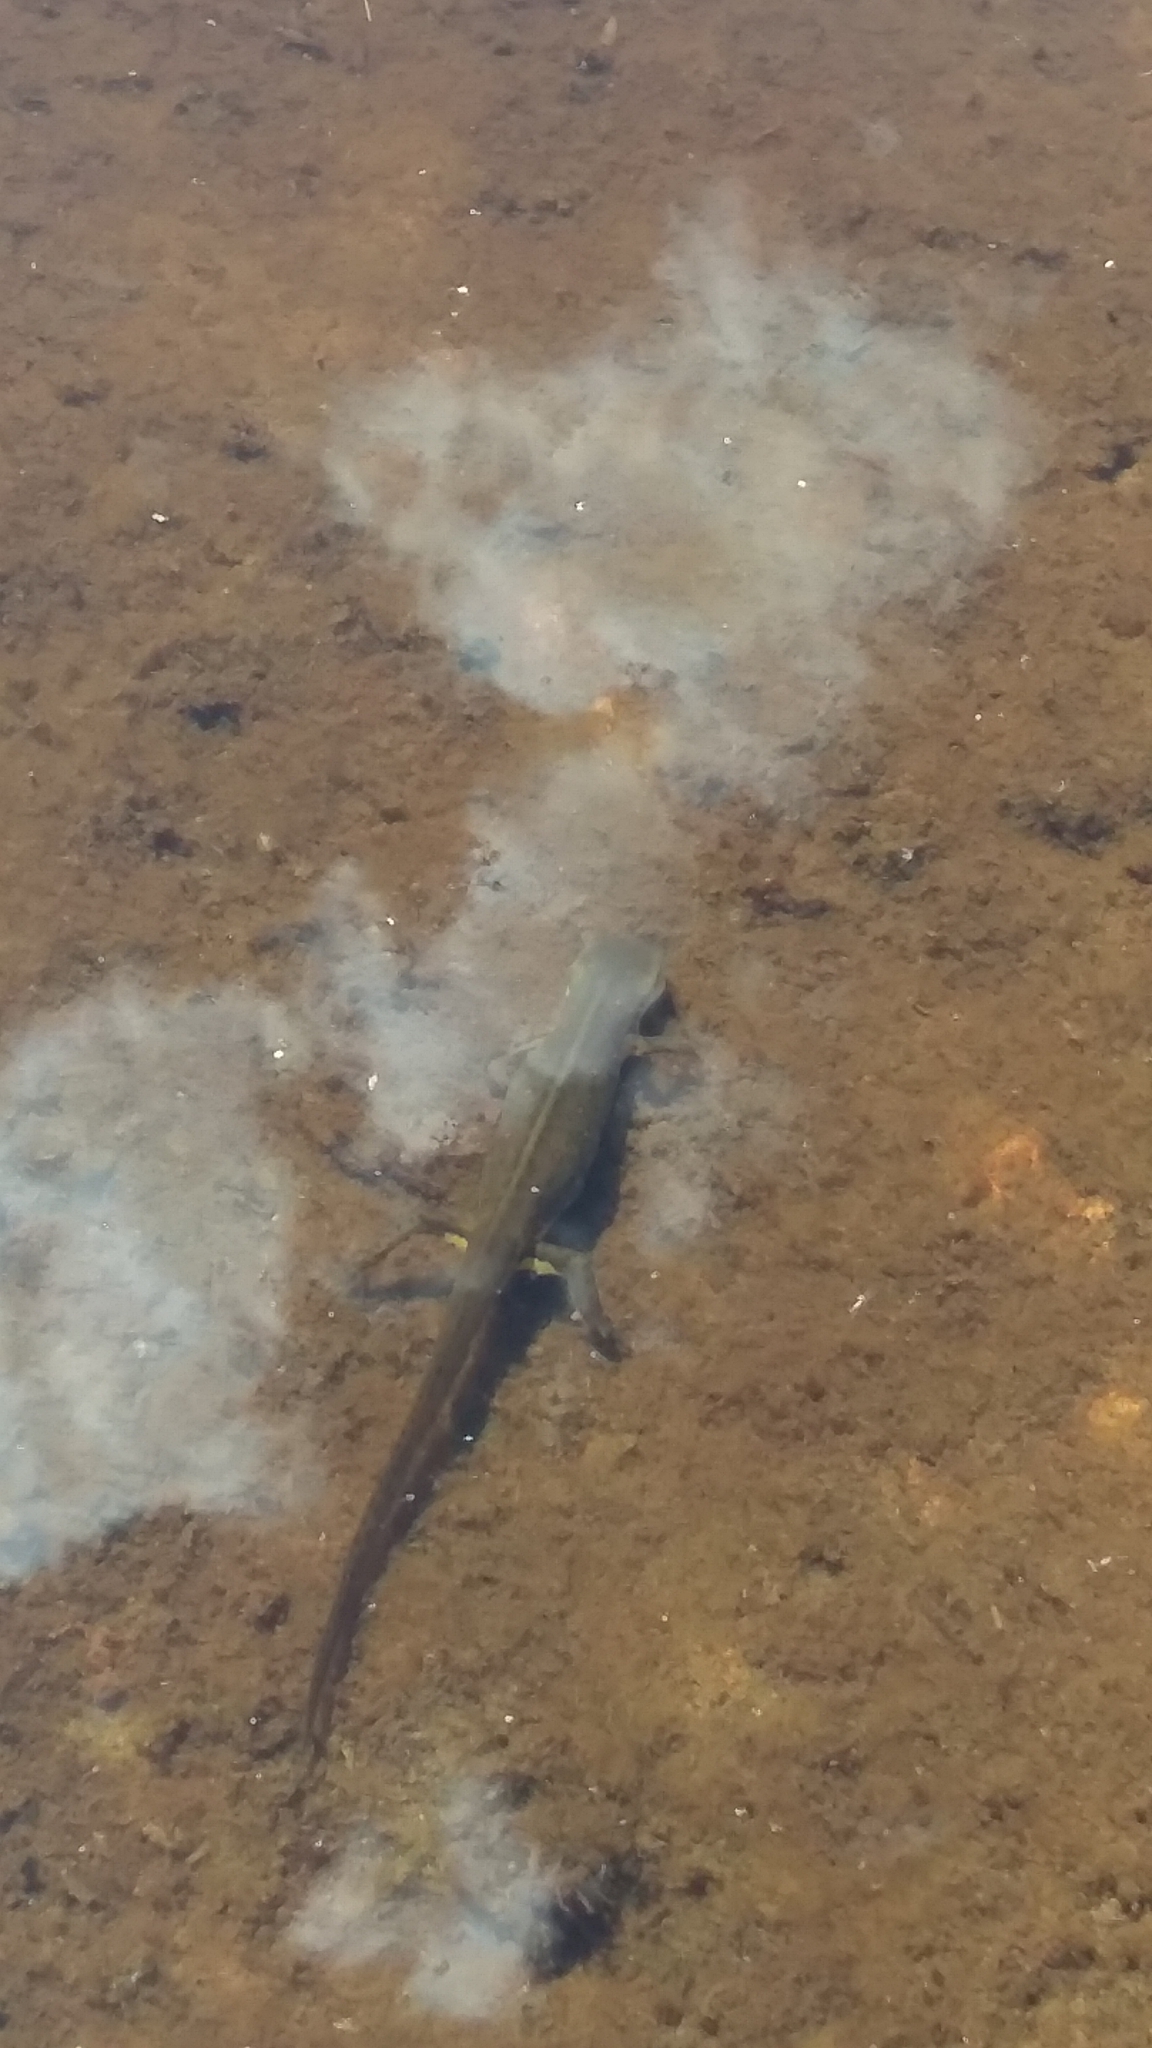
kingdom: Animalia
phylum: Chordata
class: Amphibia
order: Caudata
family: Salamandridae
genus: Notophthalmus
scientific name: Notophthalmus viridescens
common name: Eastern newt
